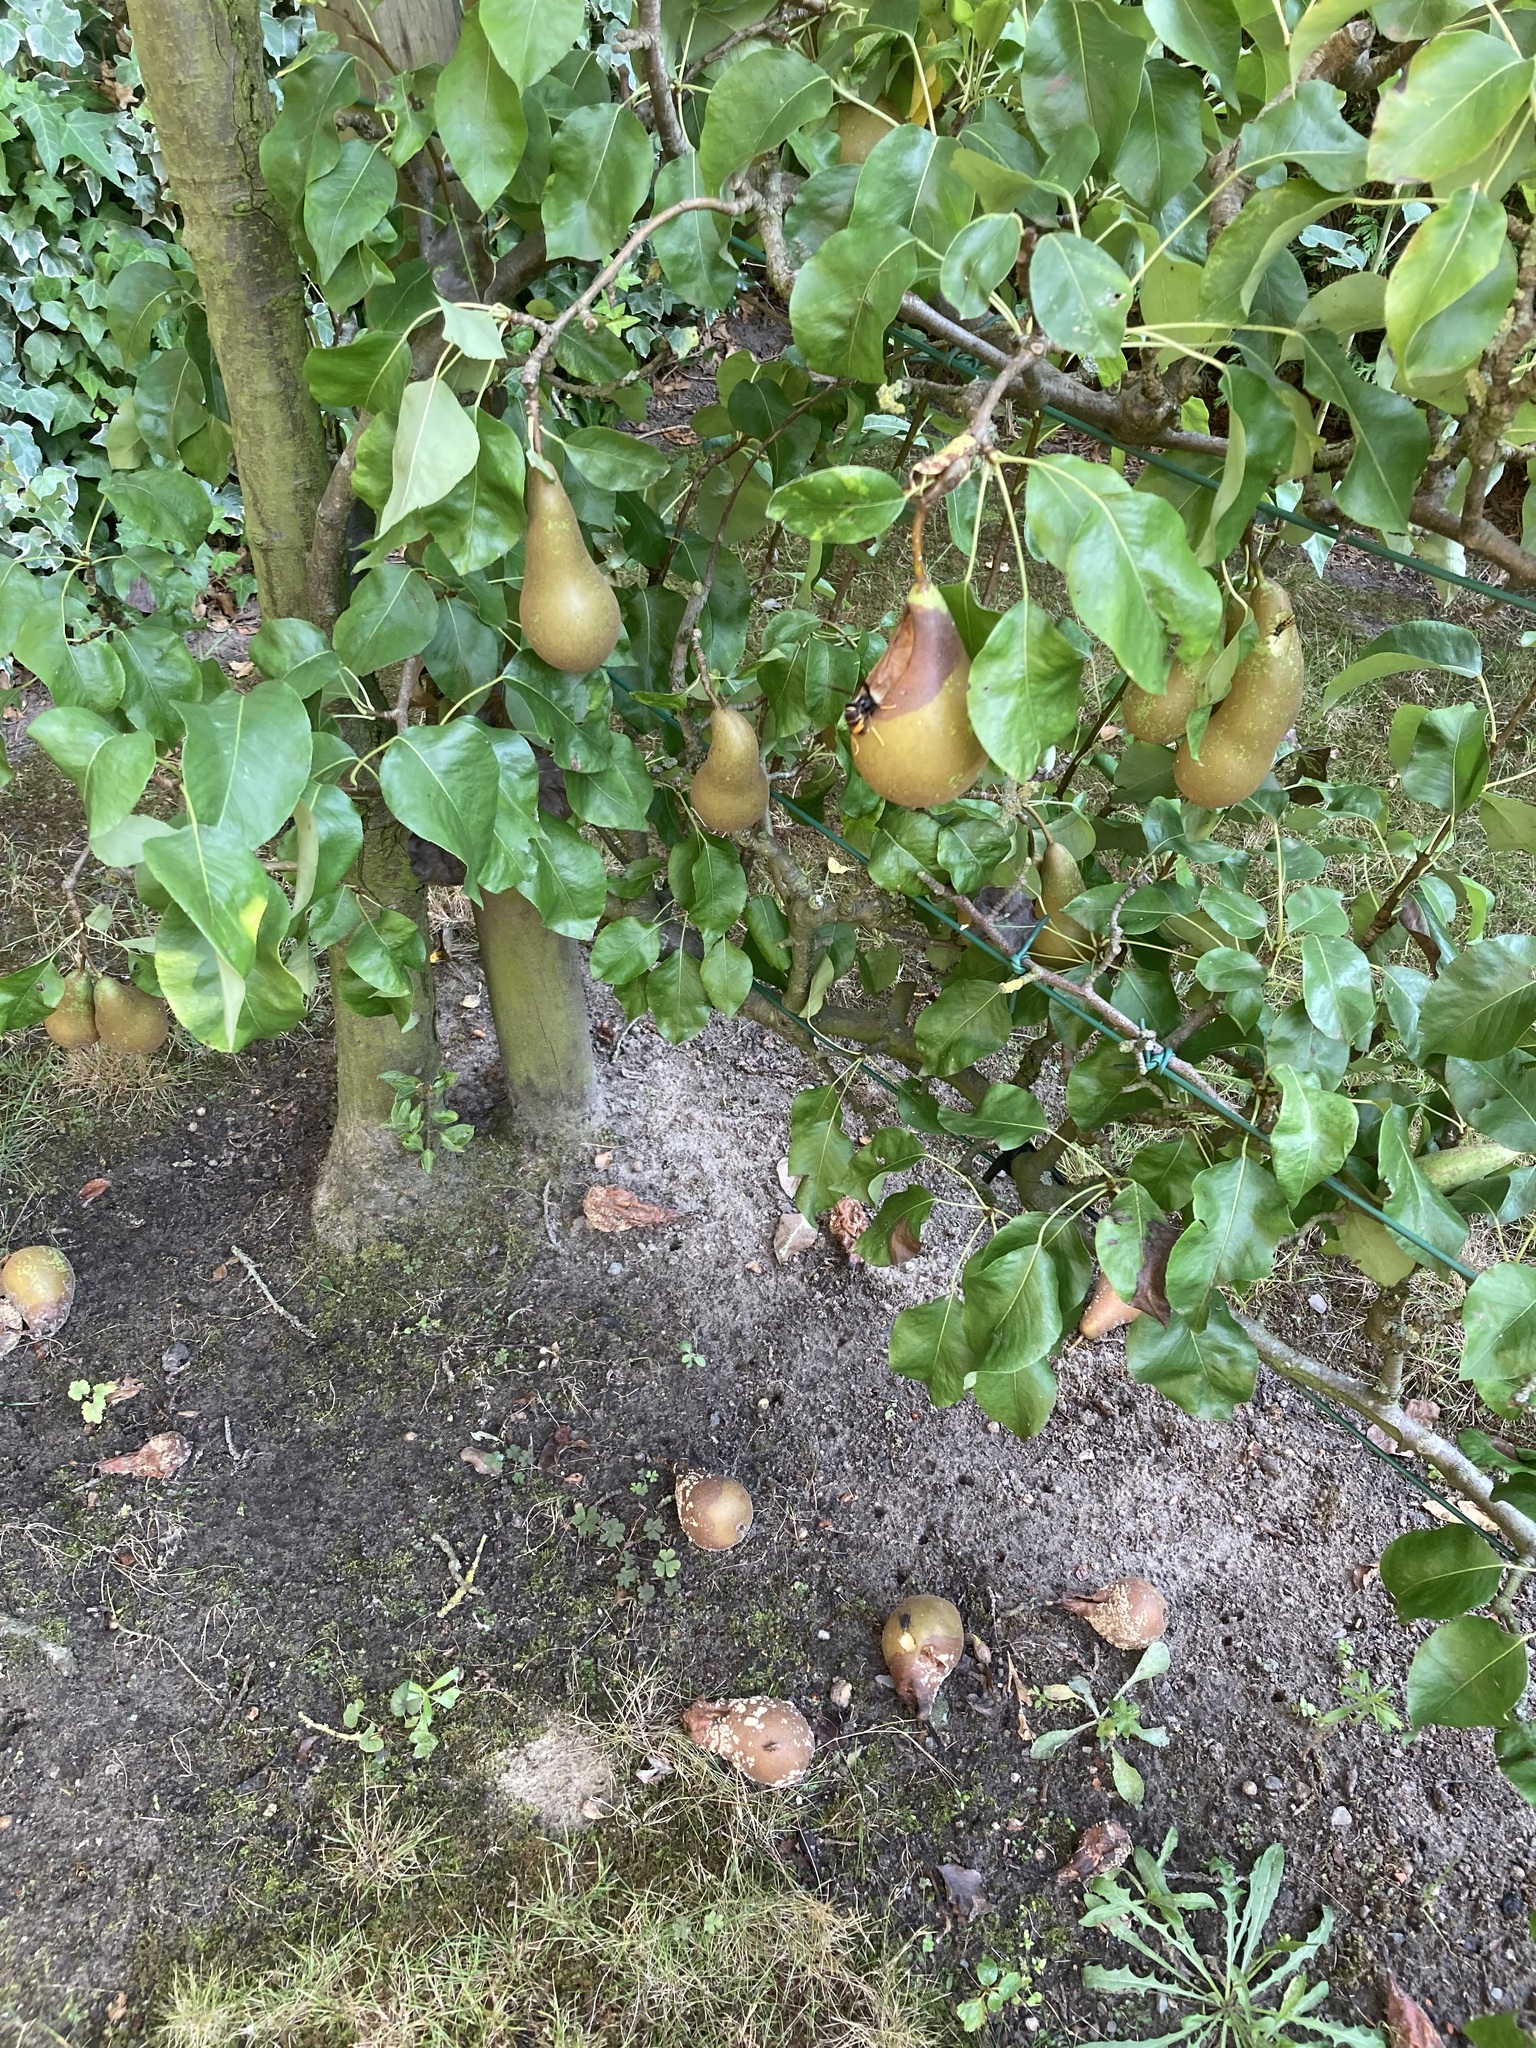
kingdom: Animalia
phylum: Arthropoda
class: Insecta
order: Hymenoptera
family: Vespidae
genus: Vespa
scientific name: Vespa velutina
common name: Asian hornet
